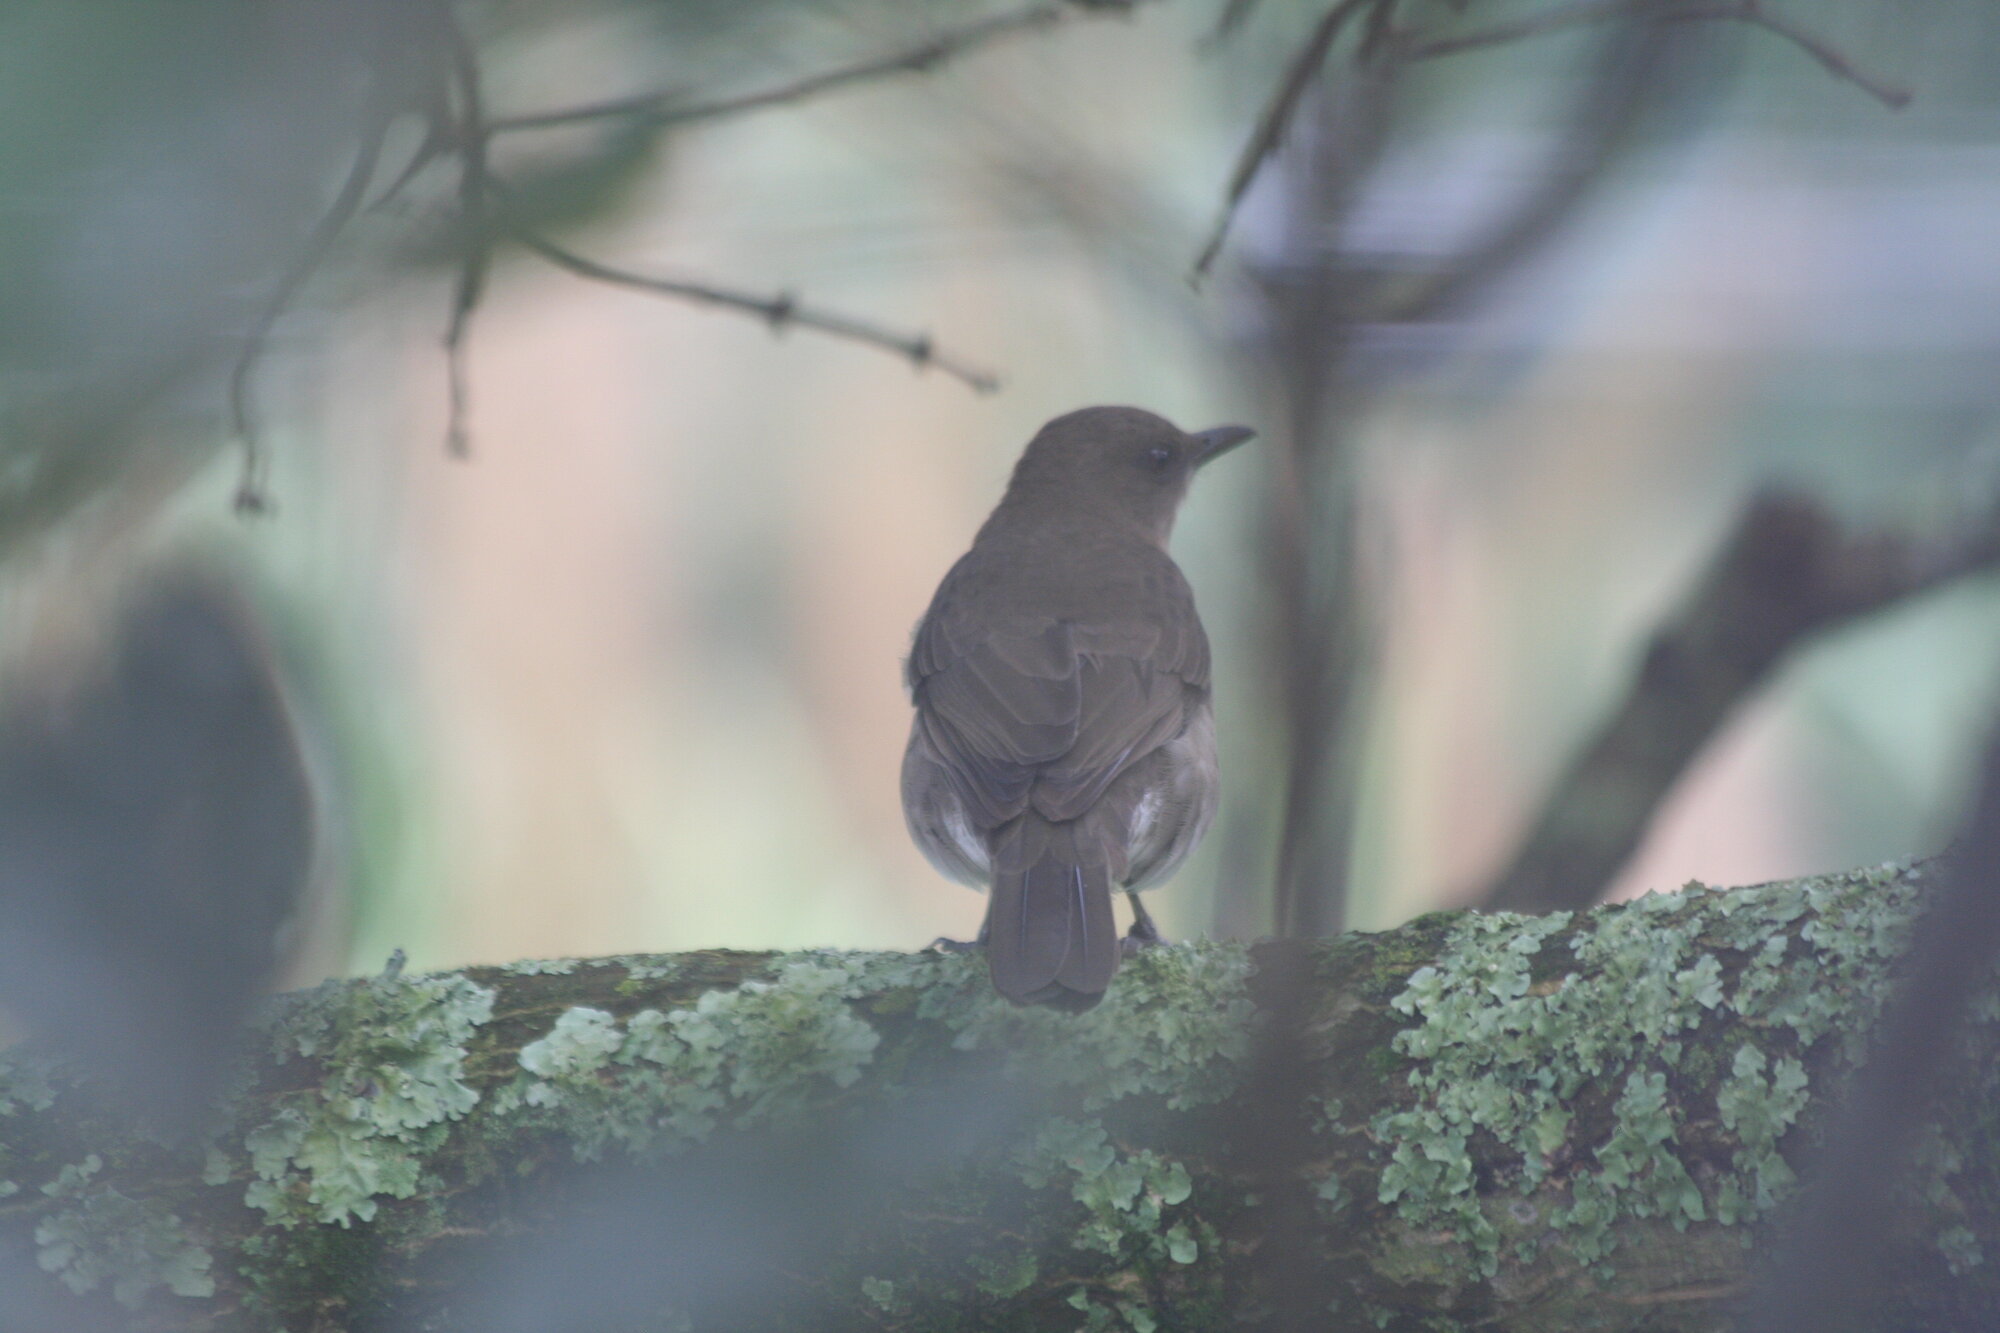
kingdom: Animalia
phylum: Chordata
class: Aves
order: Passeriformes
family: Turdidae
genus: Turdus
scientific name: Turdus ignobilis
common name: Black-billed thrush
